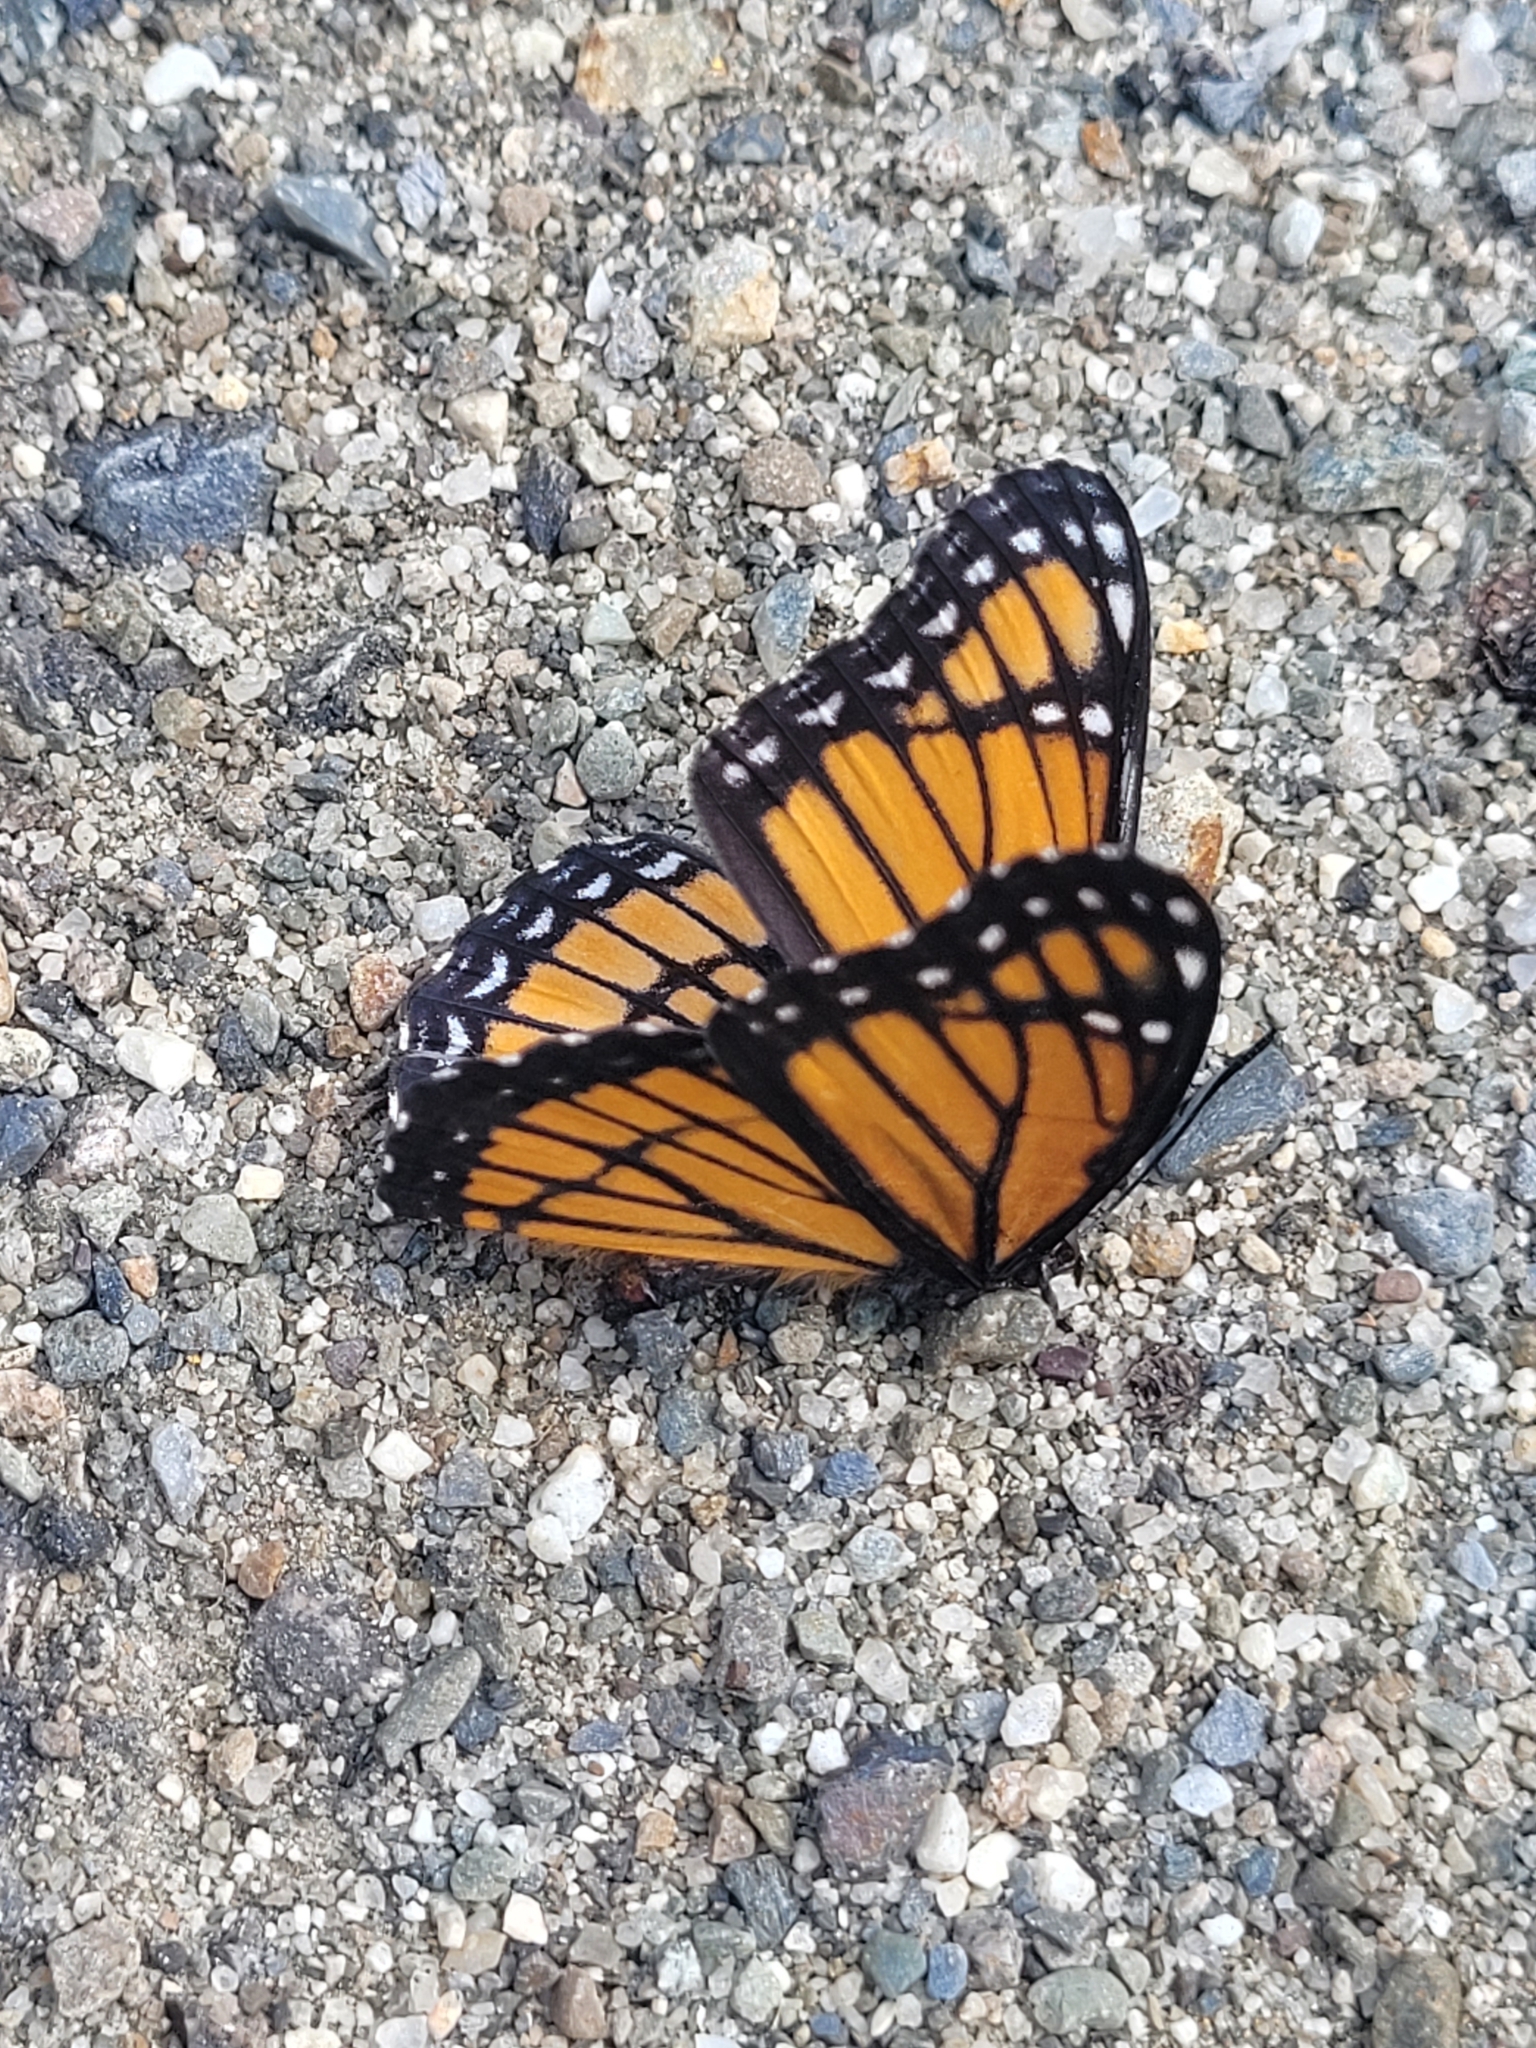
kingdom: Animalia
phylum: Arthropoda
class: Insecta
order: Lepidoptera
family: Nymphalidae
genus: Limenitis
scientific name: Limenitis archippus
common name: Viceroy
